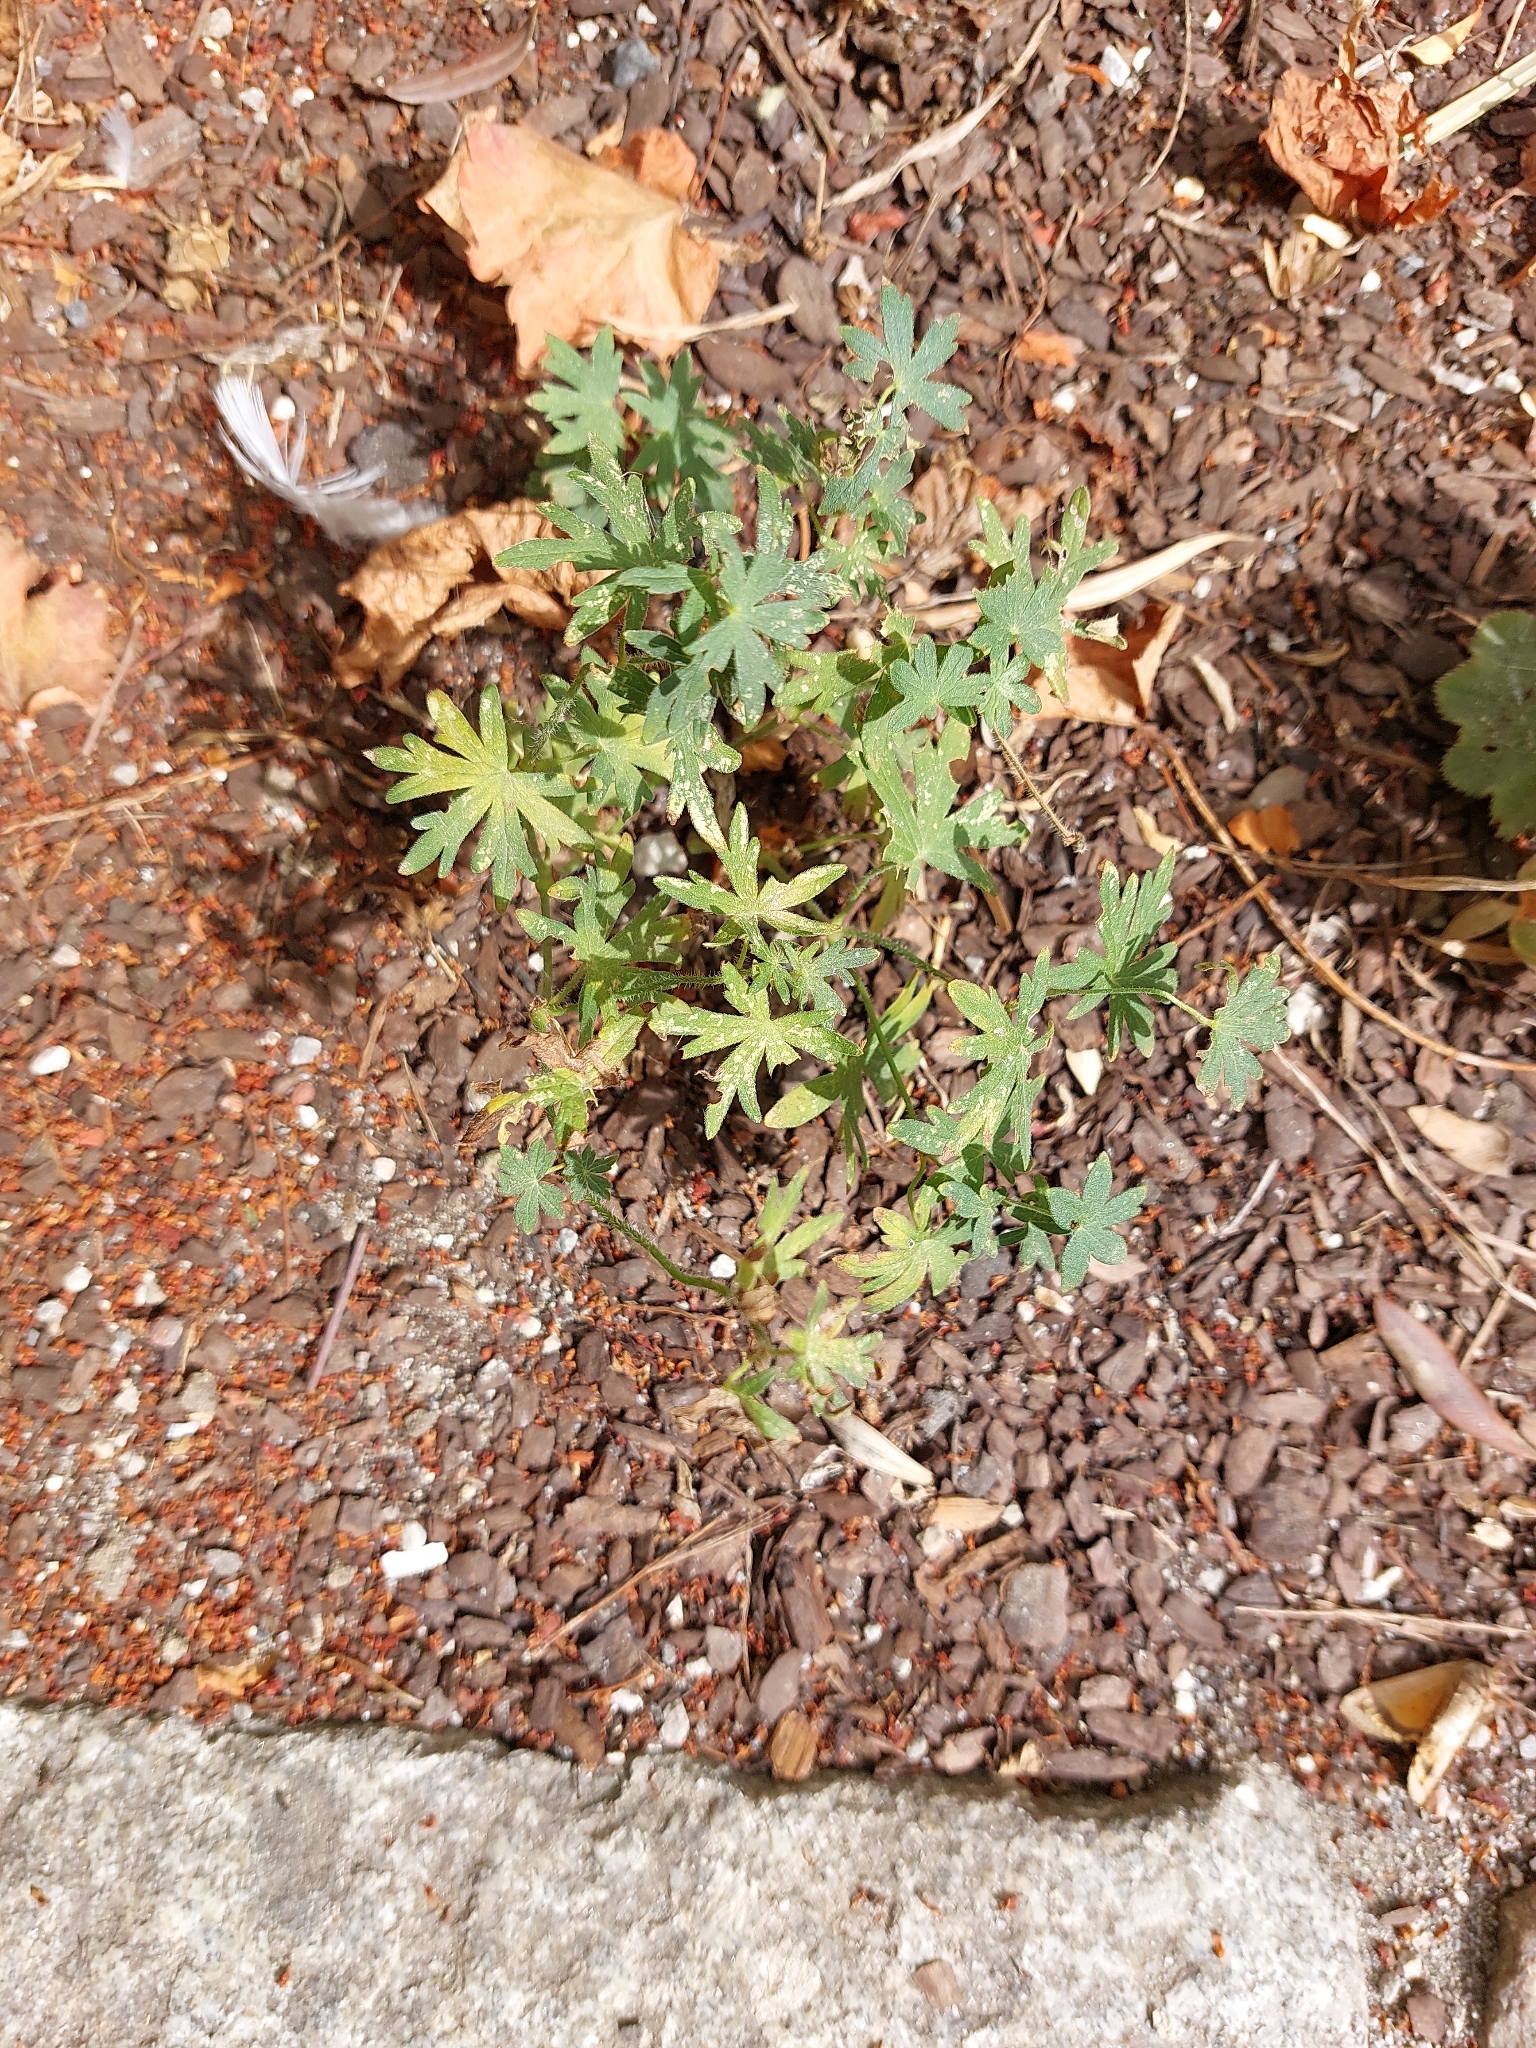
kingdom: Plantae
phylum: Tracheophyta
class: Magnoliopsida
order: Geraniales
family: Geraniaceae
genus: Geranium
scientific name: Geranium sanguineum
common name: Bloody crane's-bill
